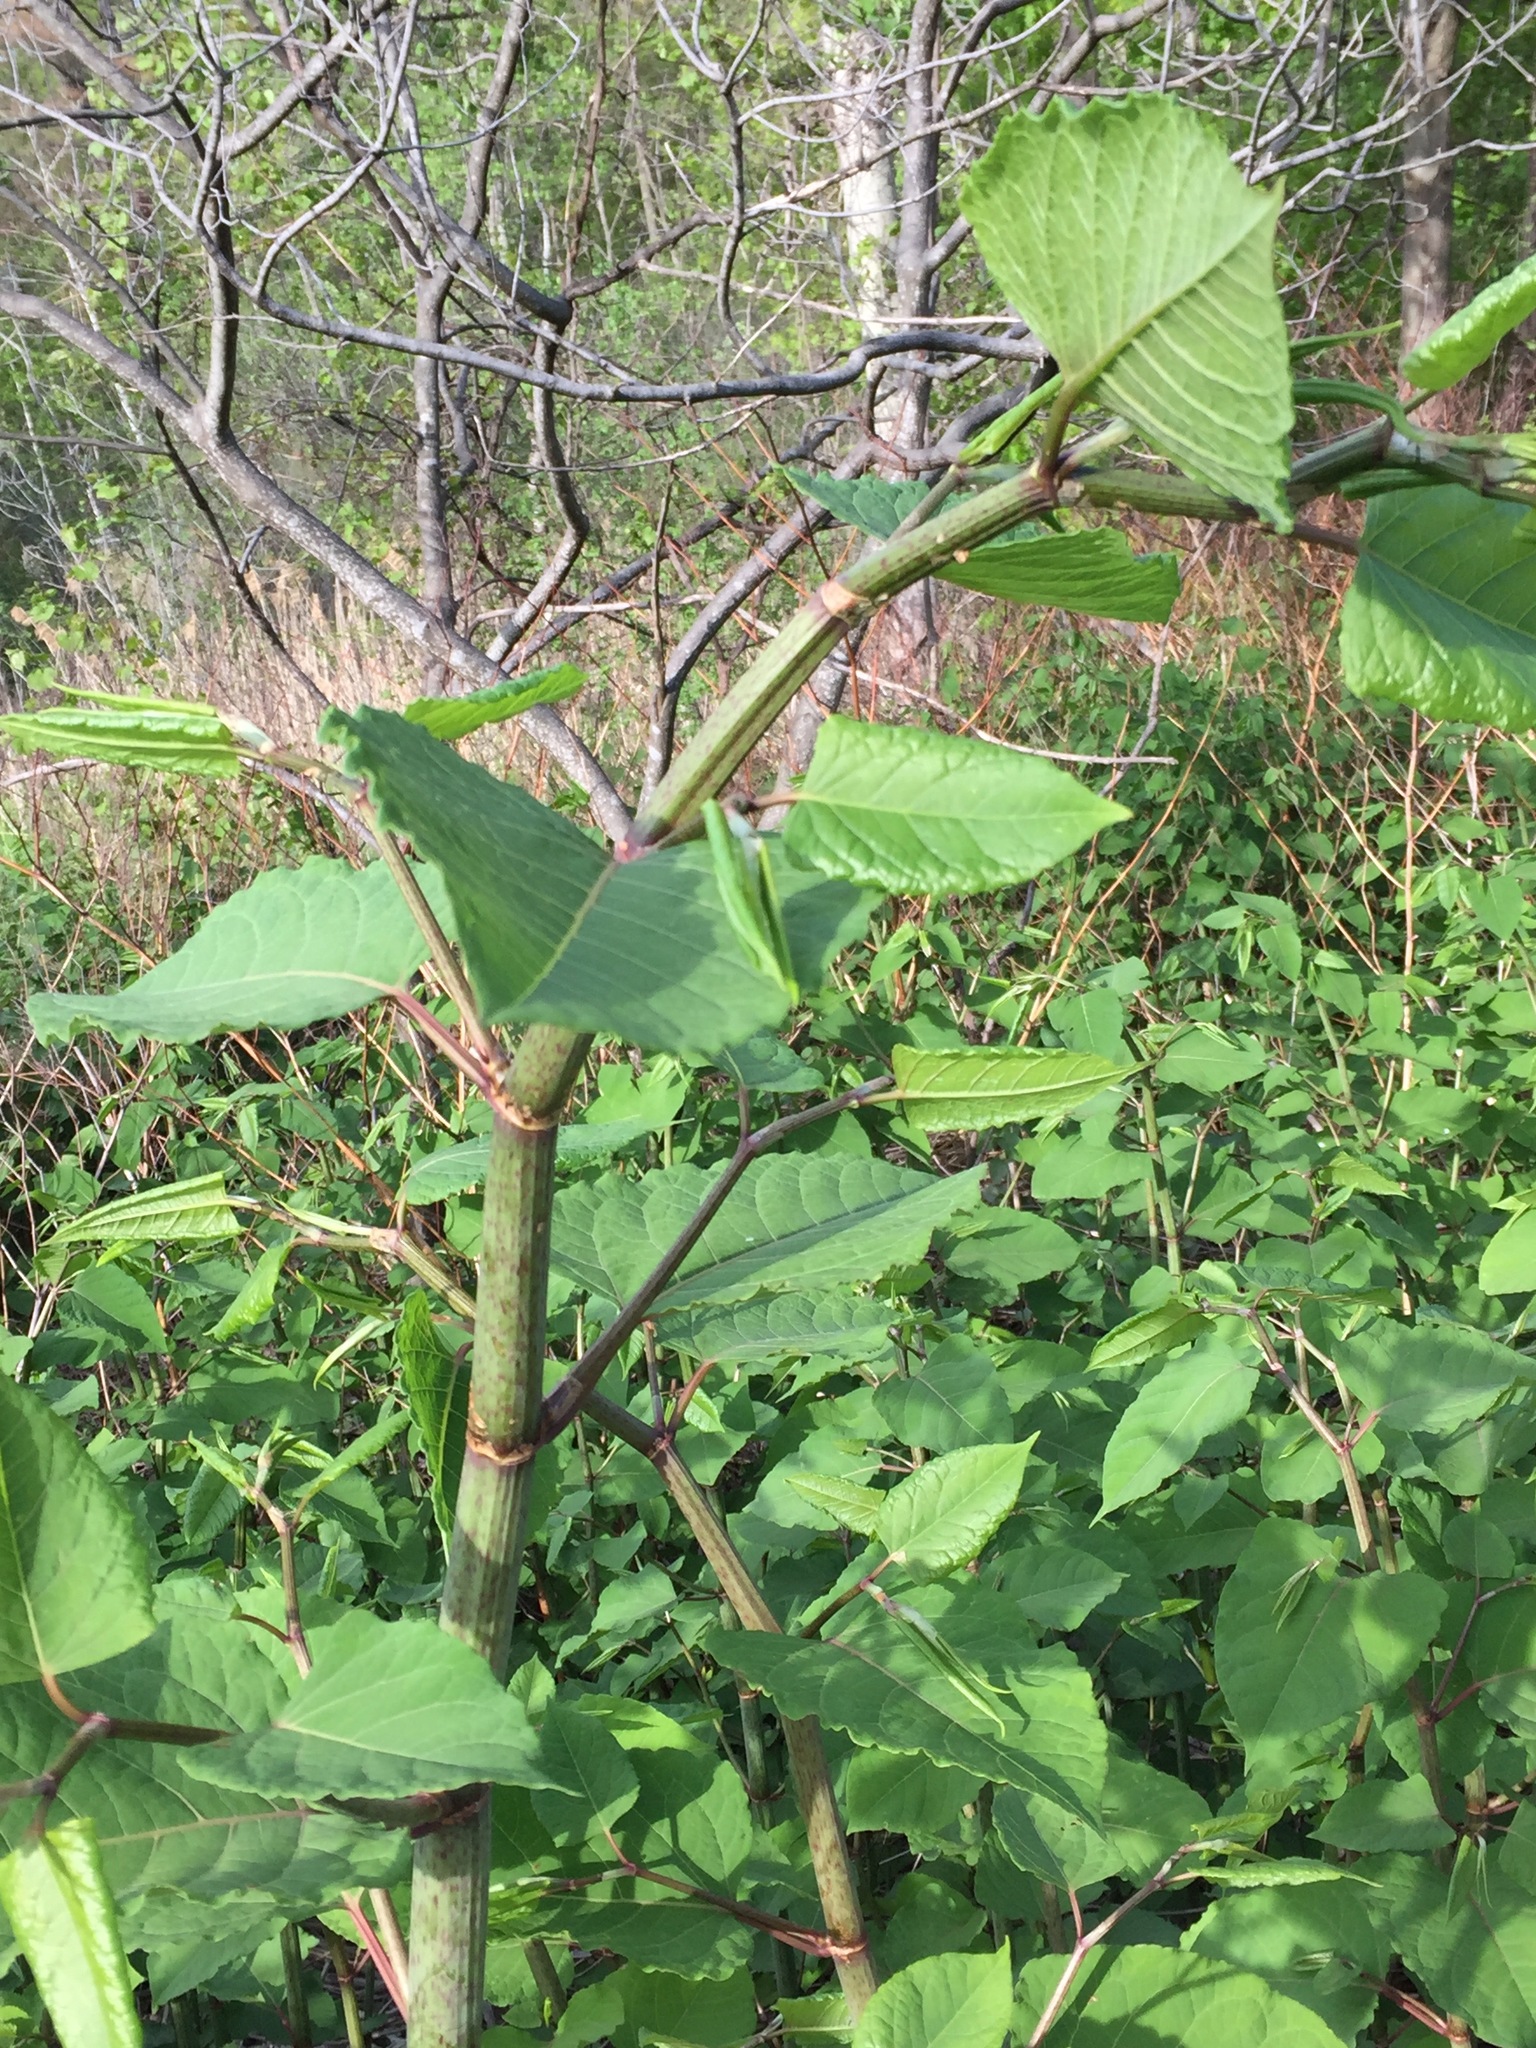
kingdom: Plantae
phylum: Tracheophyta
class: Magnoliopsida
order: Caryophyllales
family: Polygonaceae
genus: Reynoutria
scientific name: Reynoutria japonica
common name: Japanese knotweed
